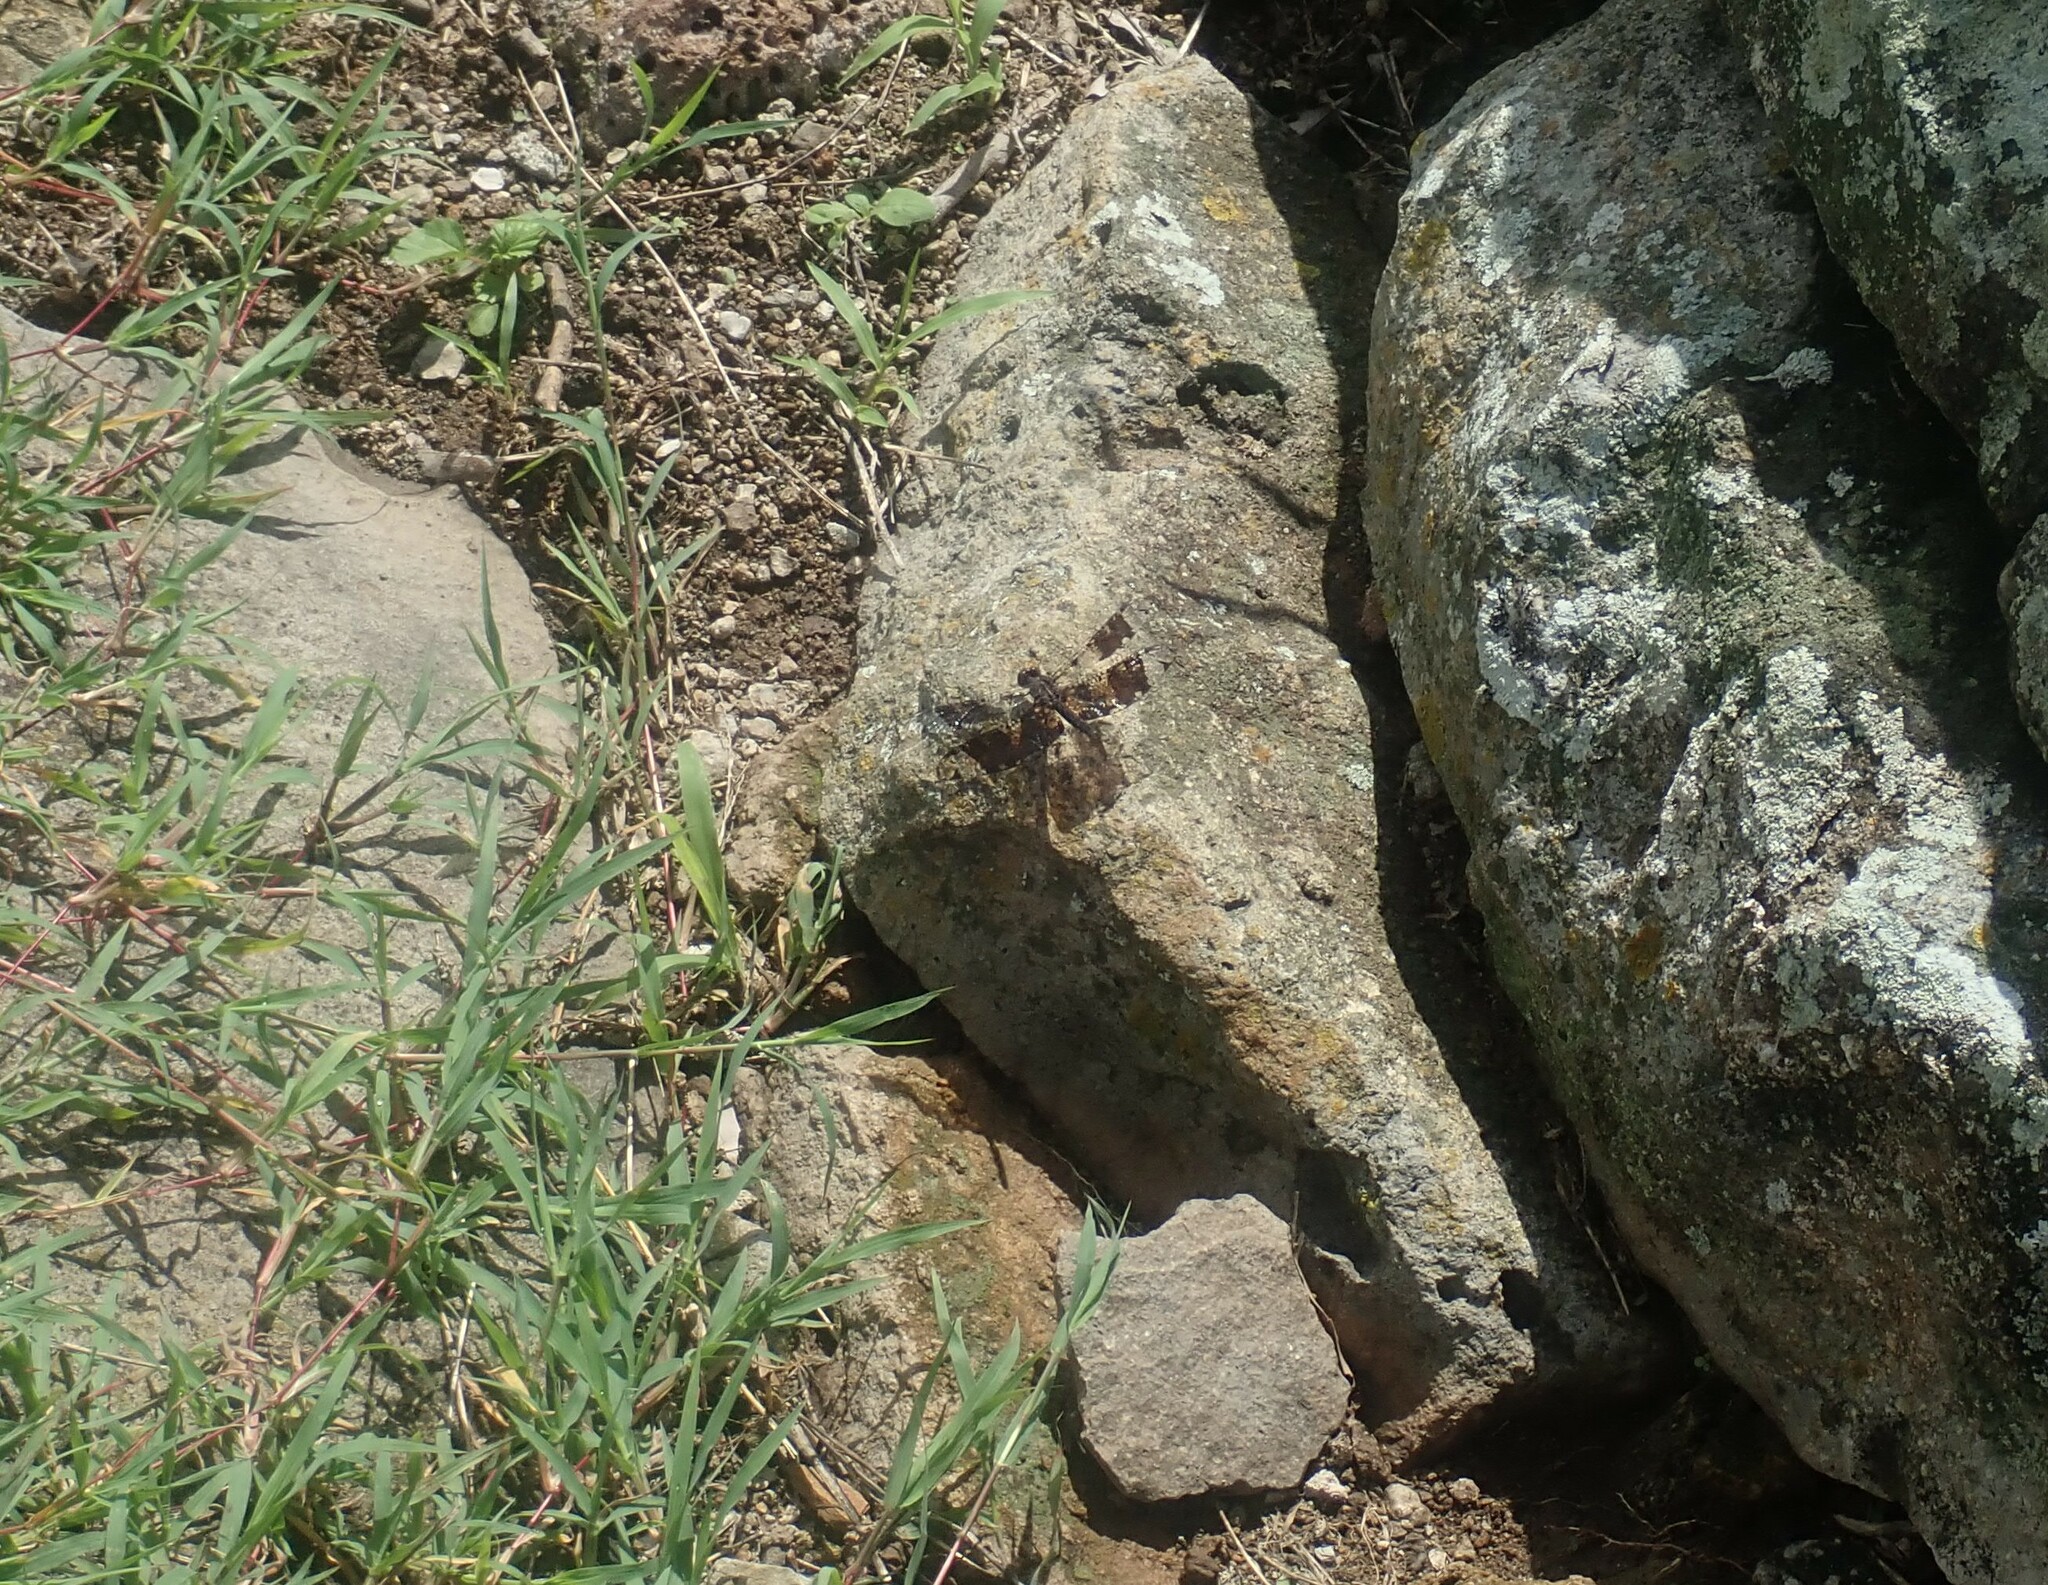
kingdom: Animalia
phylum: Arthropoda
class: Insecta
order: Odonata
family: Libellulidae
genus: Pseudoleon
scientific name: Pseudoleon superbus
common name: Filigree skimmer
